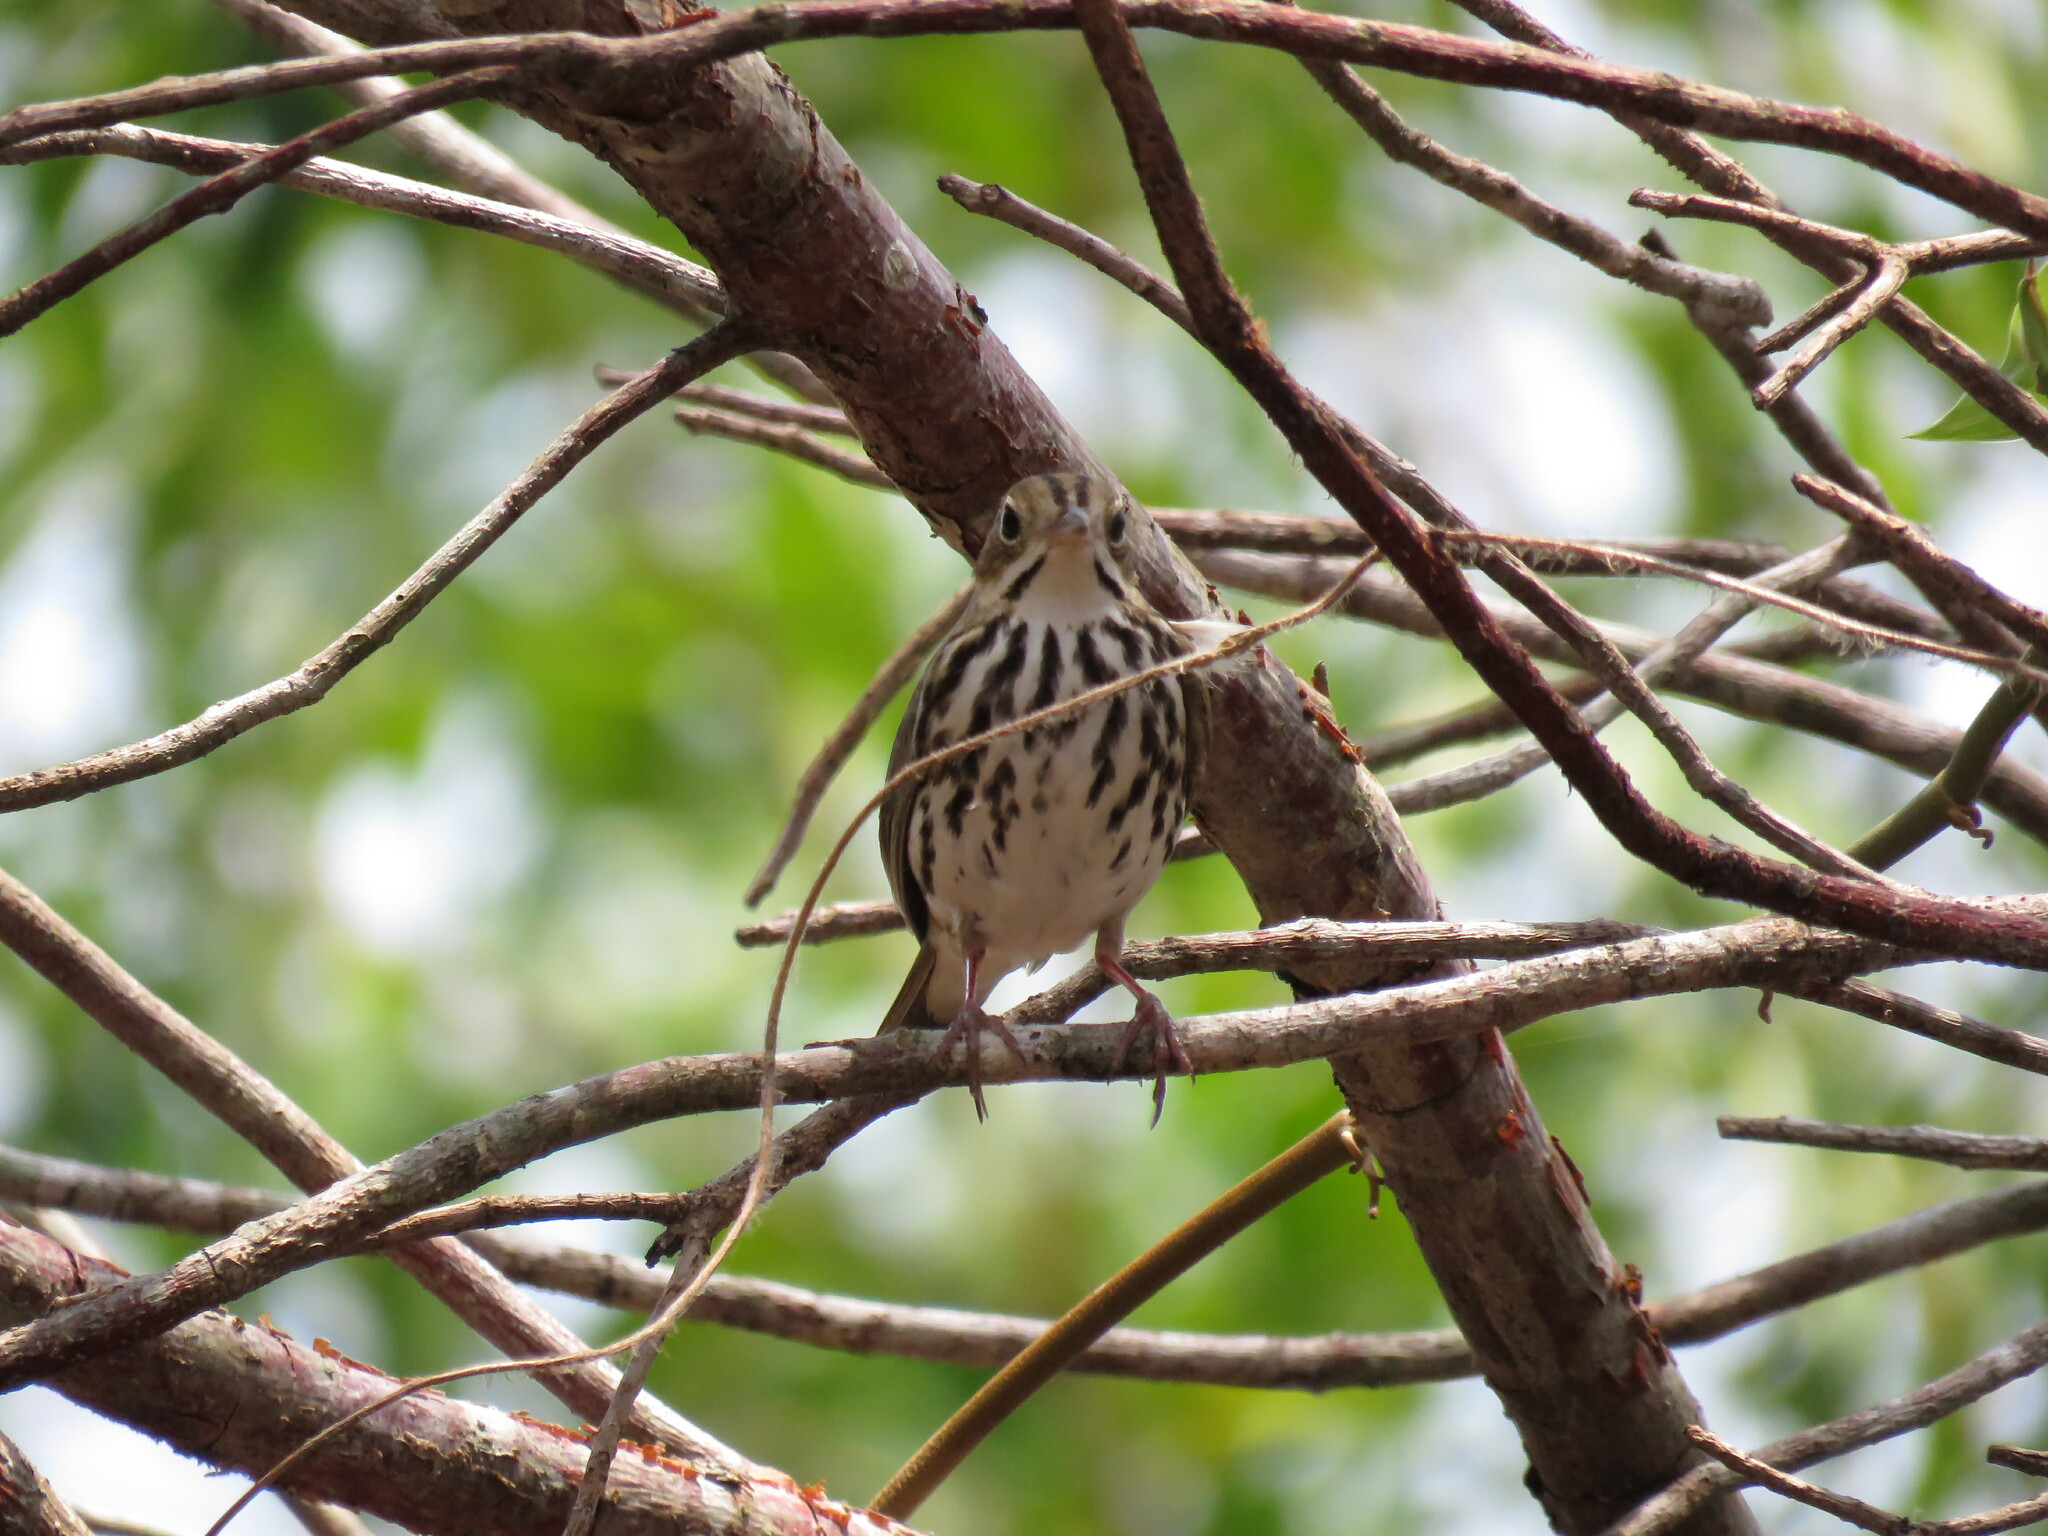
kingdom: Animalia
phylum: Chordata
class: Aves
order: Passeriformes
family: Parulidae
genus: Seiurus
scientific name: Seiurus aurocapilla
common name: Ovenbird
